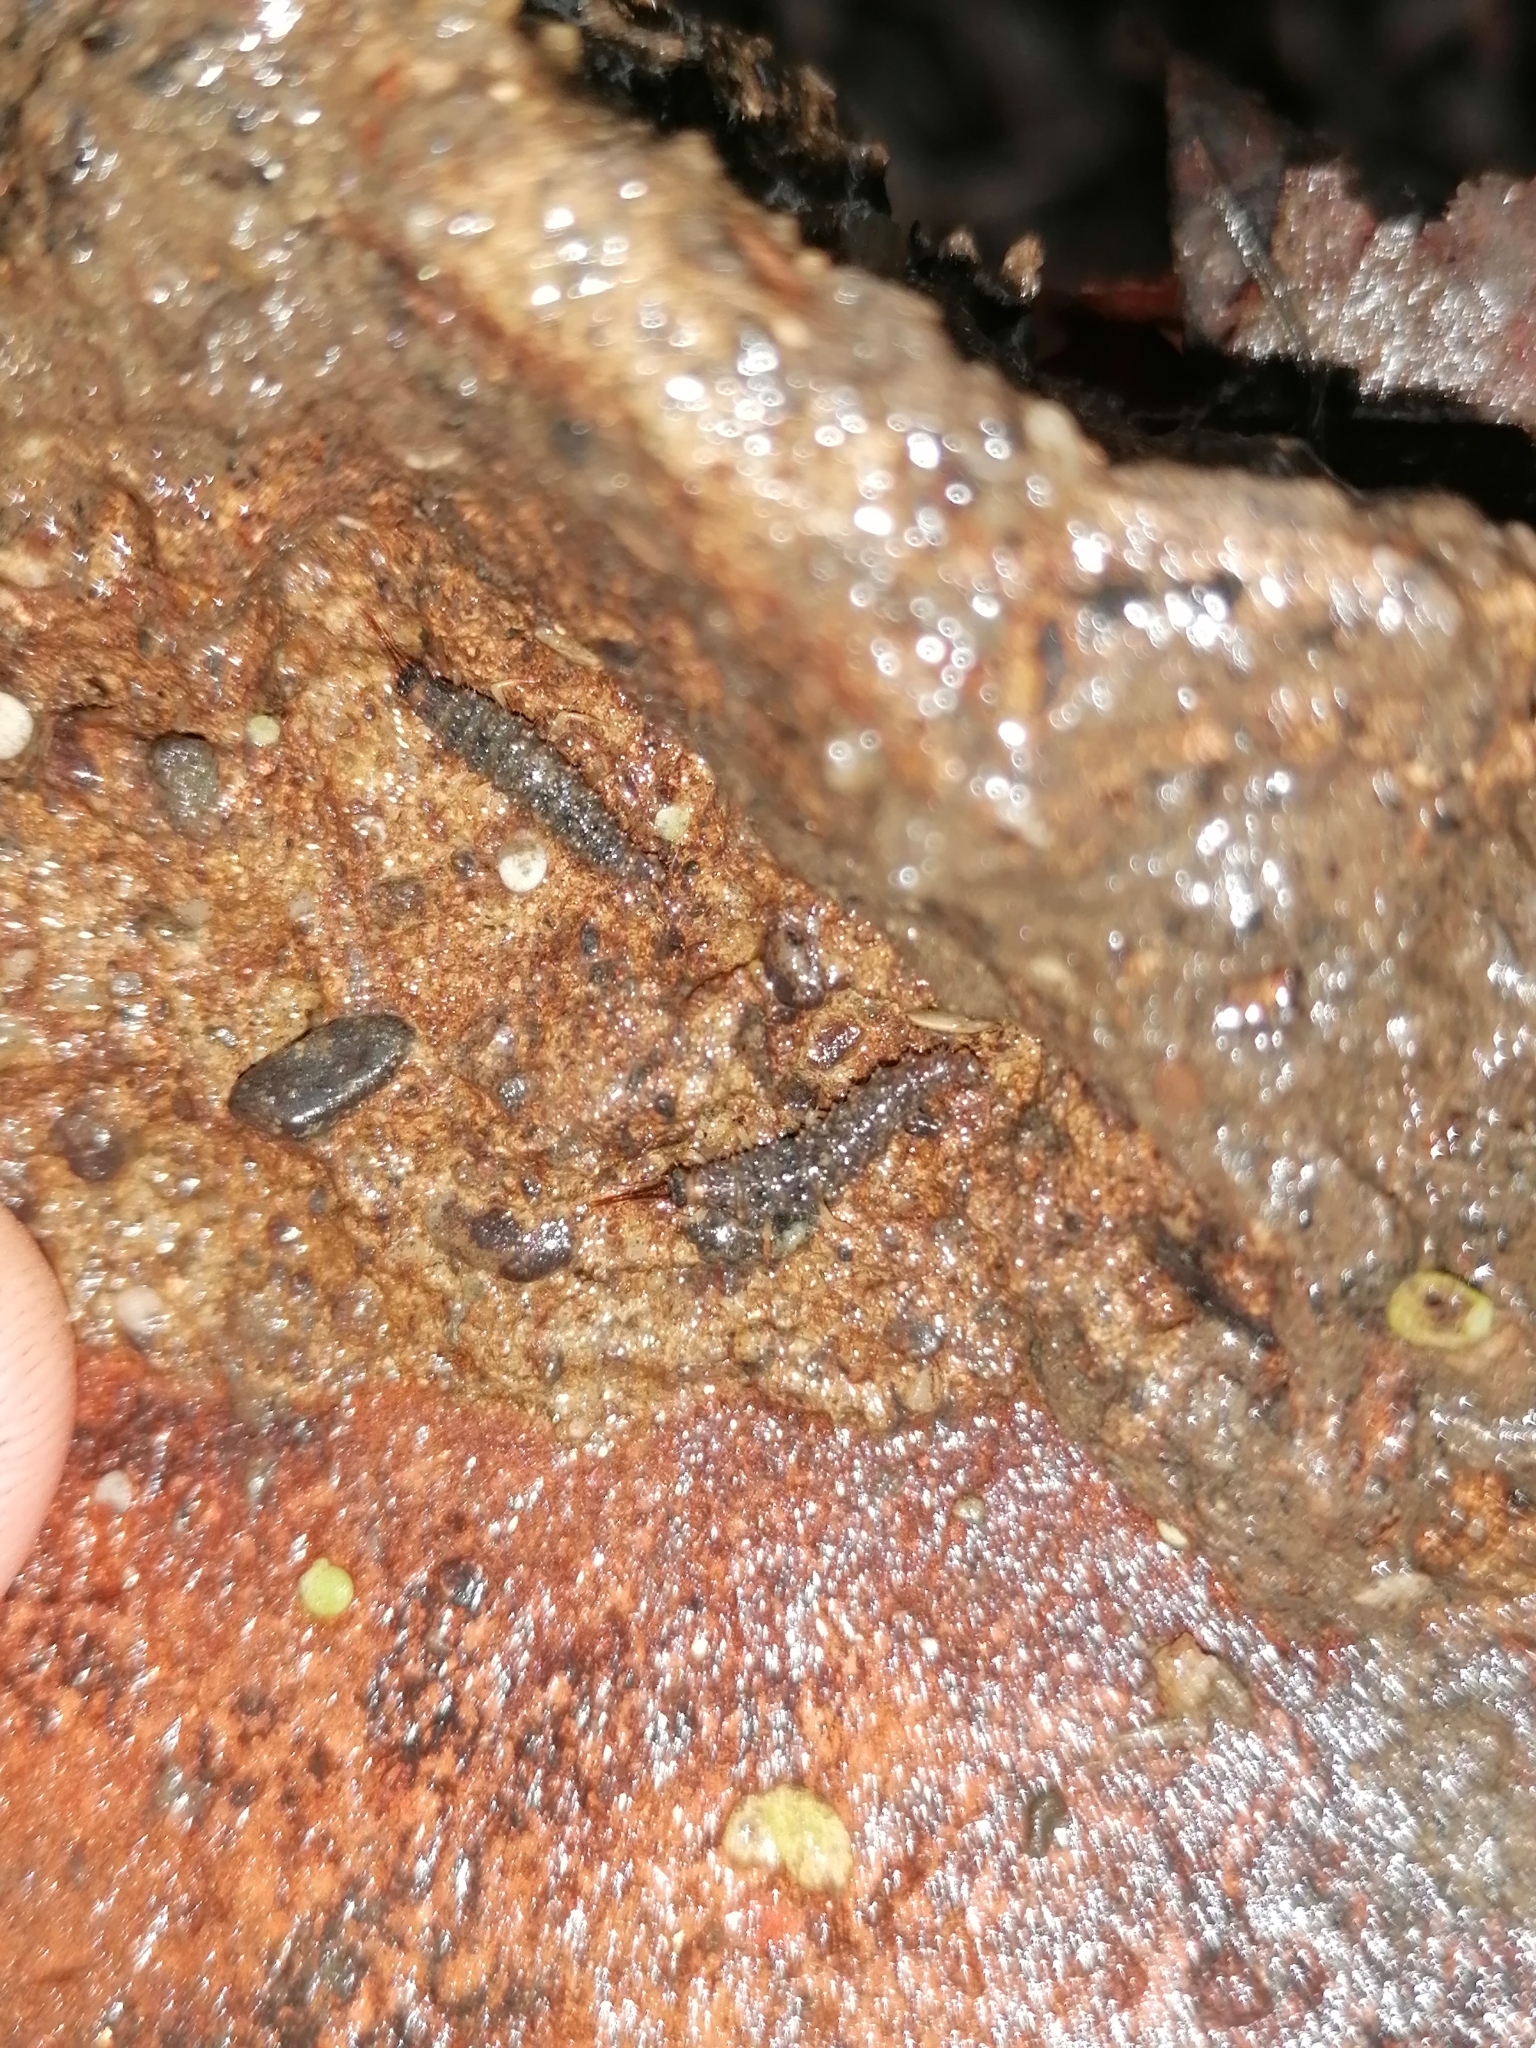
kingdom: Animalia
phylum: Arthropoda
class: Insecta
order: Neuroptera
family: Osmylidae
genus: Osmylus
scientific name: Osmylus fulvicephalus
